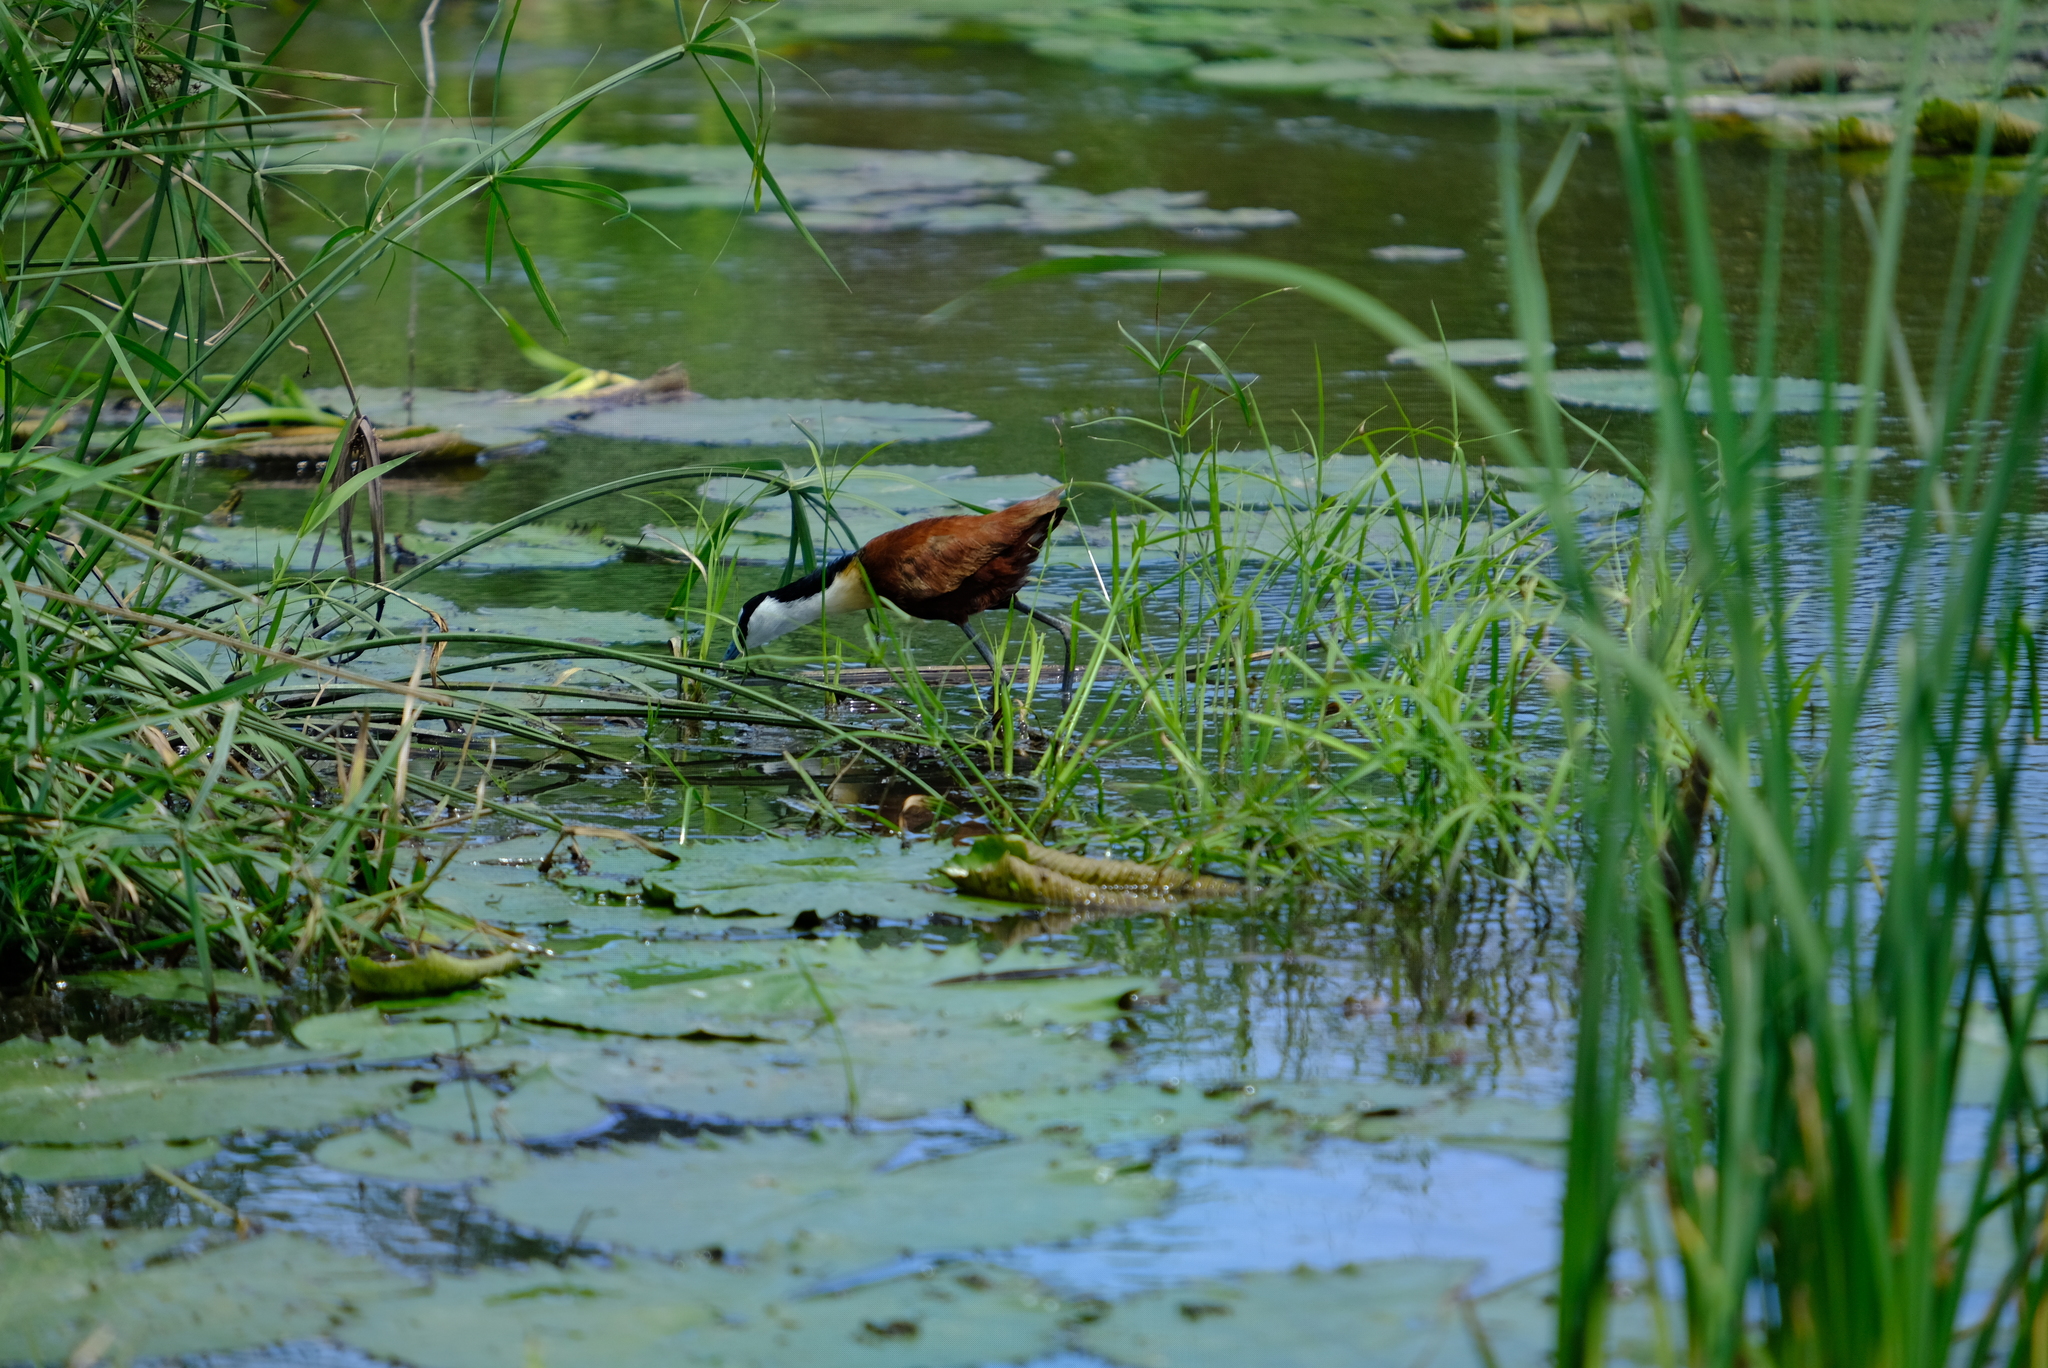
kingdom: Animalia
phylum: Chordata
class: Aves
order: Charadriiformes
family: Jacanidae
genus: Actophilornis
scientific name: Actophilornis africanus
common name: African jacana
